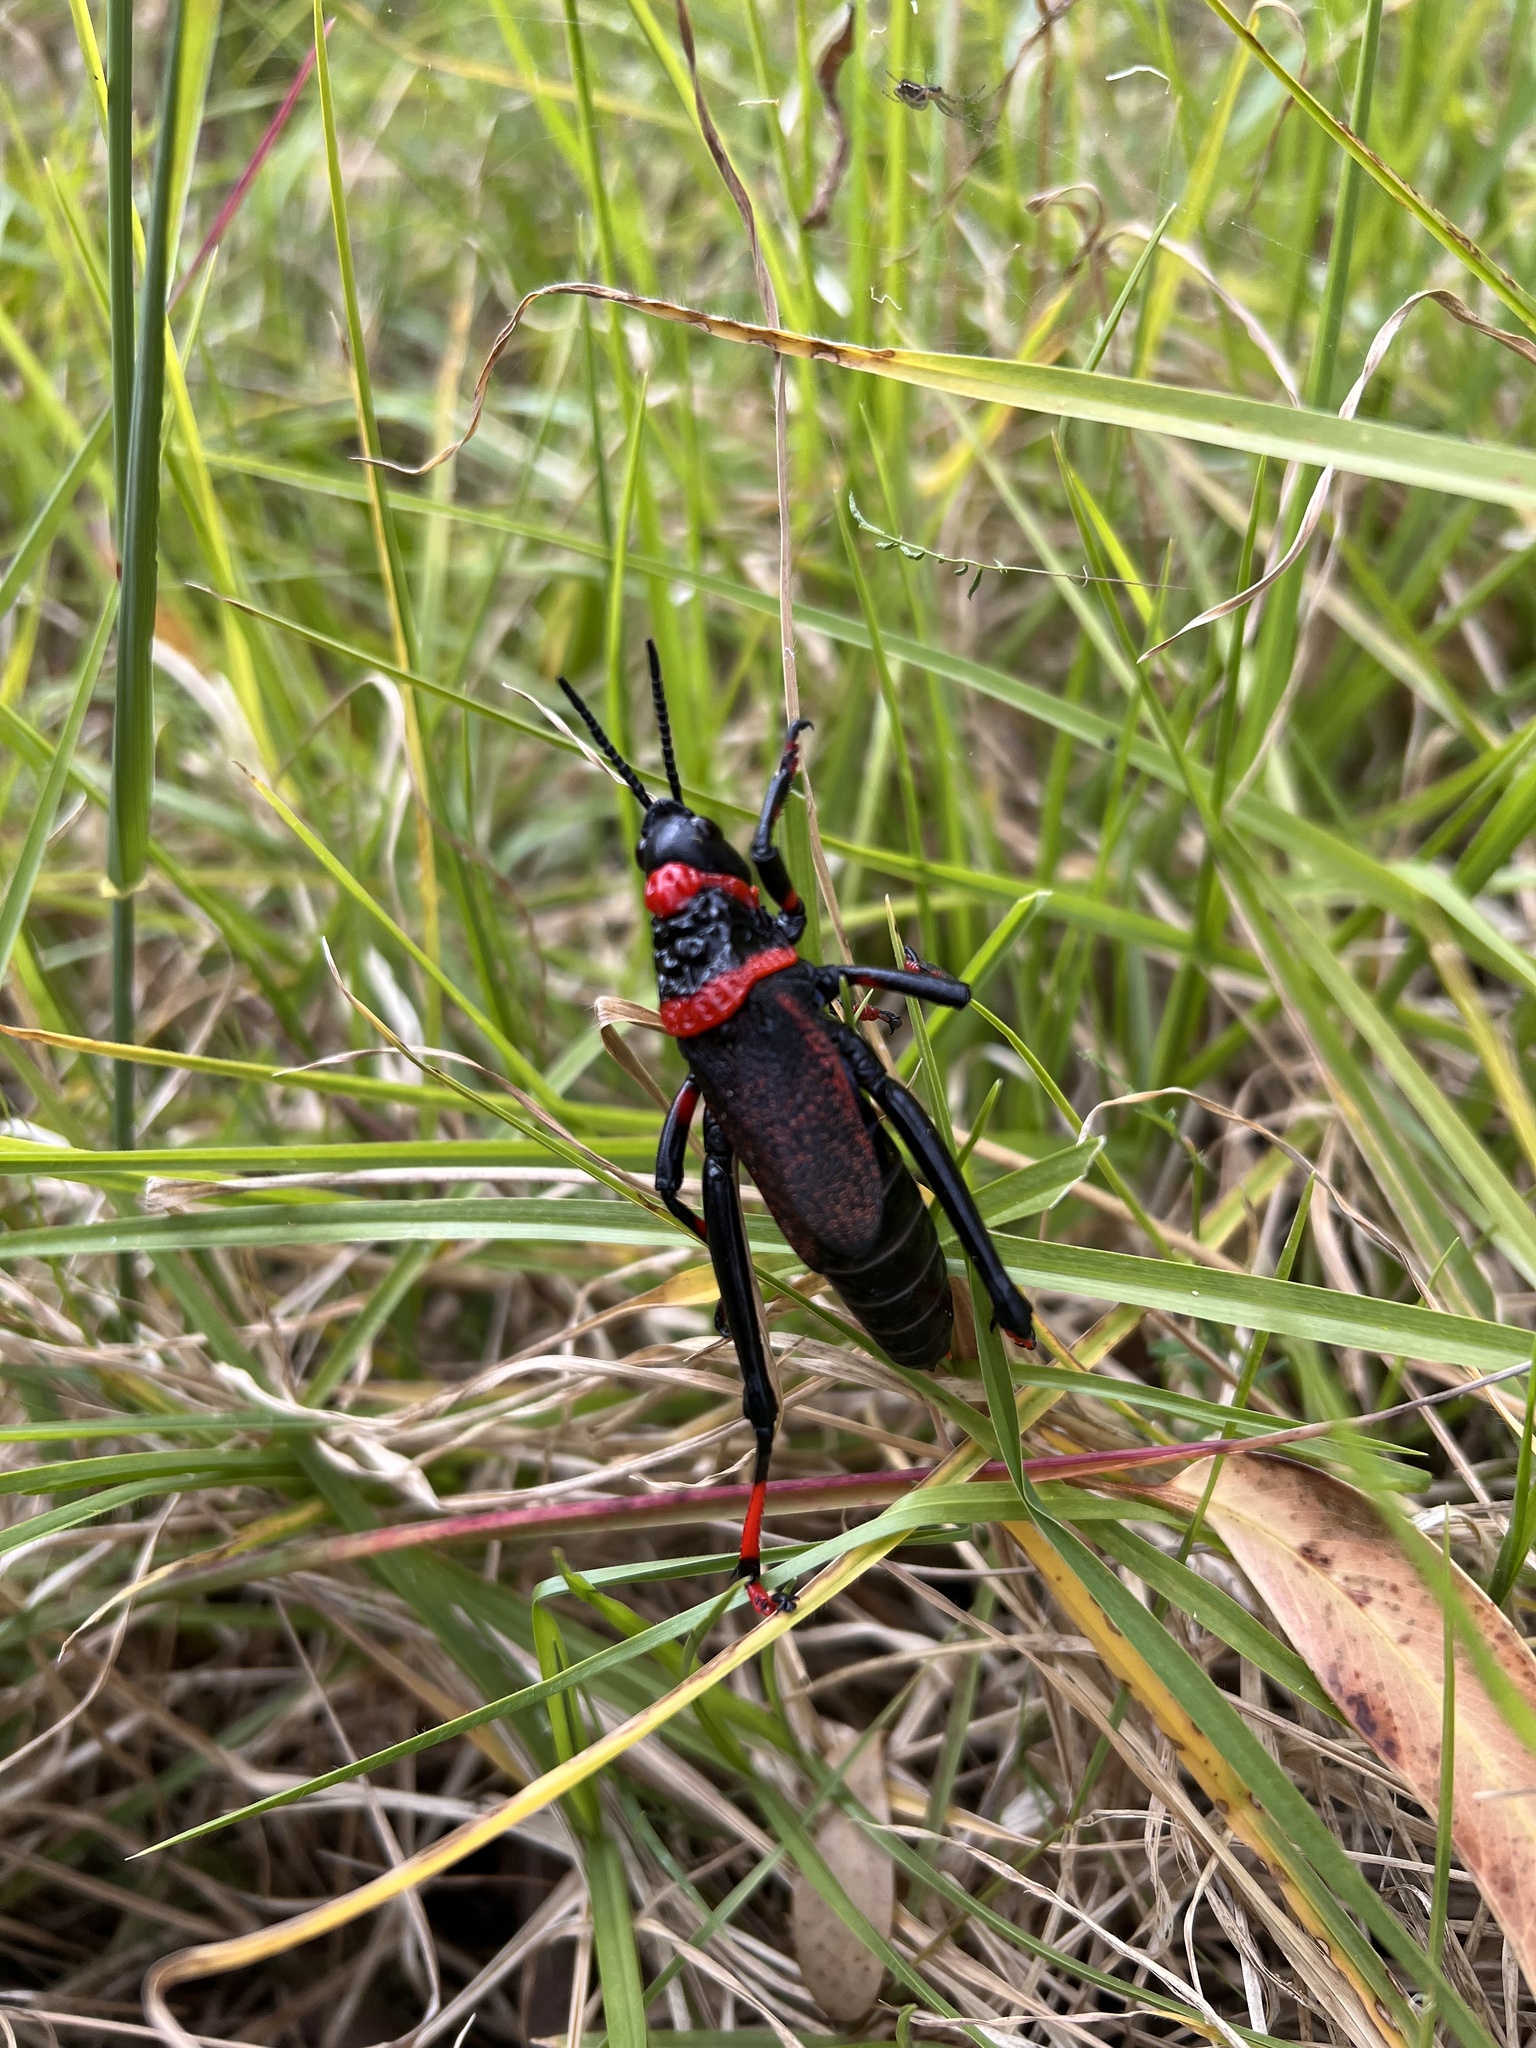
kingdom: Animalia
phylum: Arthropoda
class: Insecta
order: Orthoptera
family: Pyrgomorphidae
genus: Dictyophorus
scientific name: Dictyophorus spumans
